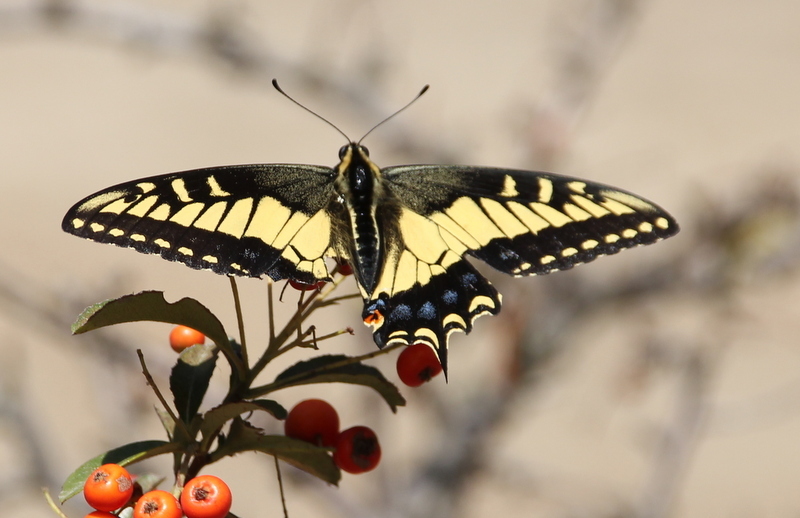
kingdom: Animalia
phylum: Arthropoda
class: Insecta
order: Lepidoptera
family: Papilionidae
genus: Papilio
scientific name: Papilio zelicaon
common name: Anise swallowtail
